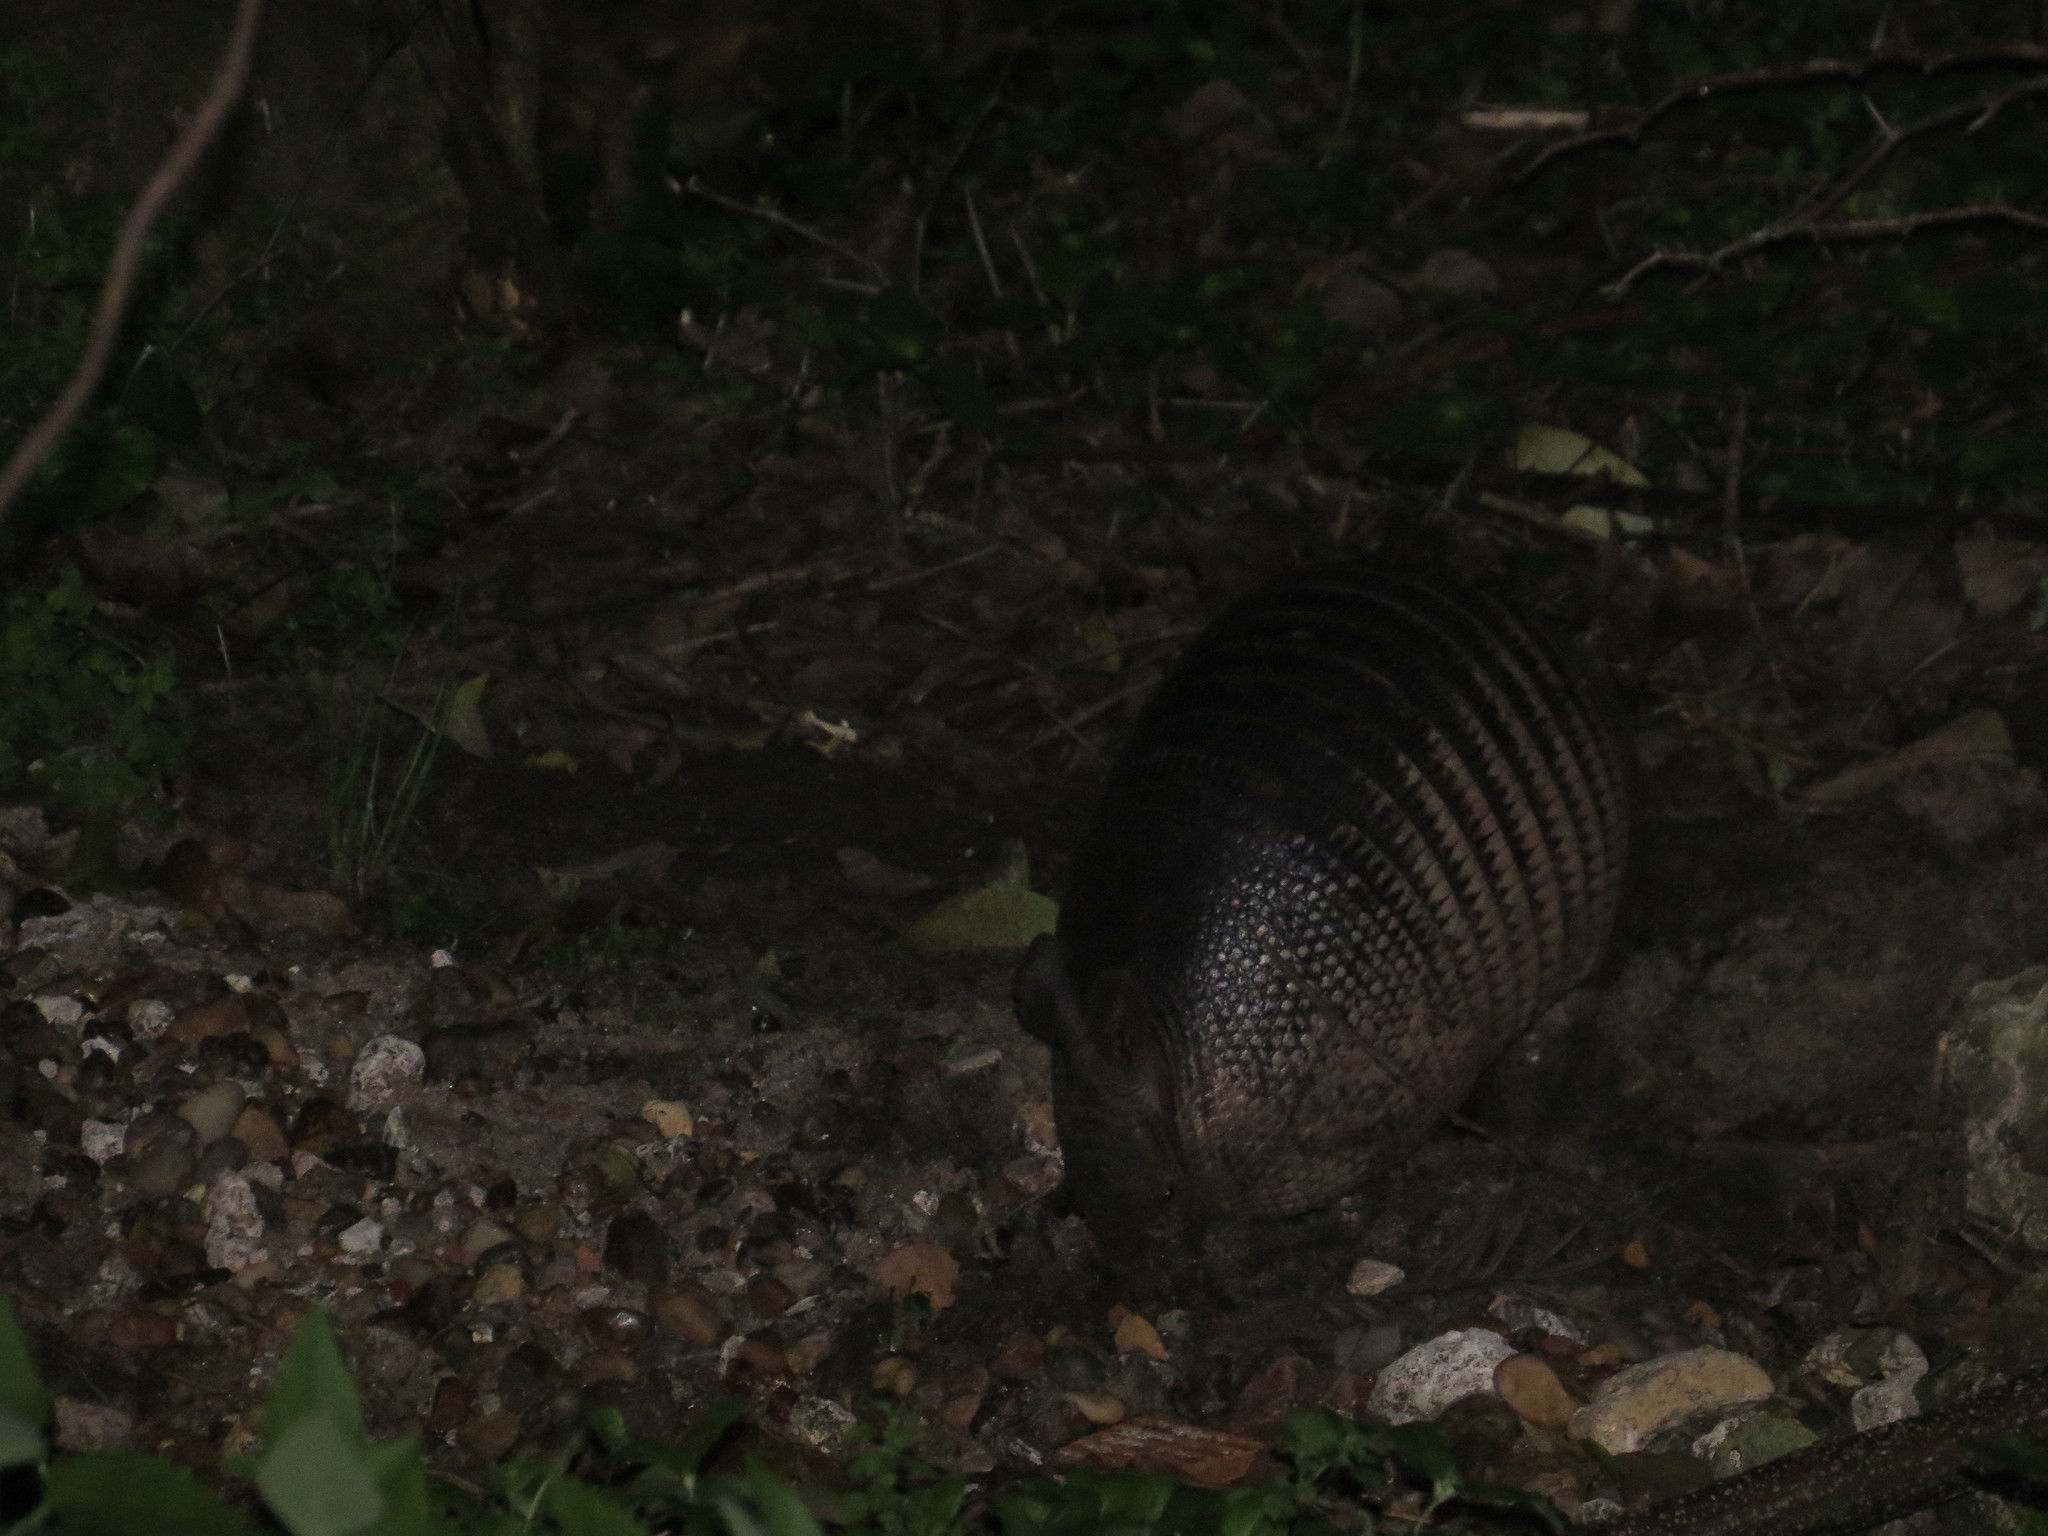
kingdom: Animalia
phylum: Chordata
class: Mammalia
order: Cingulata
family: Dasypodidae
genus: Dasypus
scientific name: Dasypus novemcinctus
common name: Nine-banded armadillo
